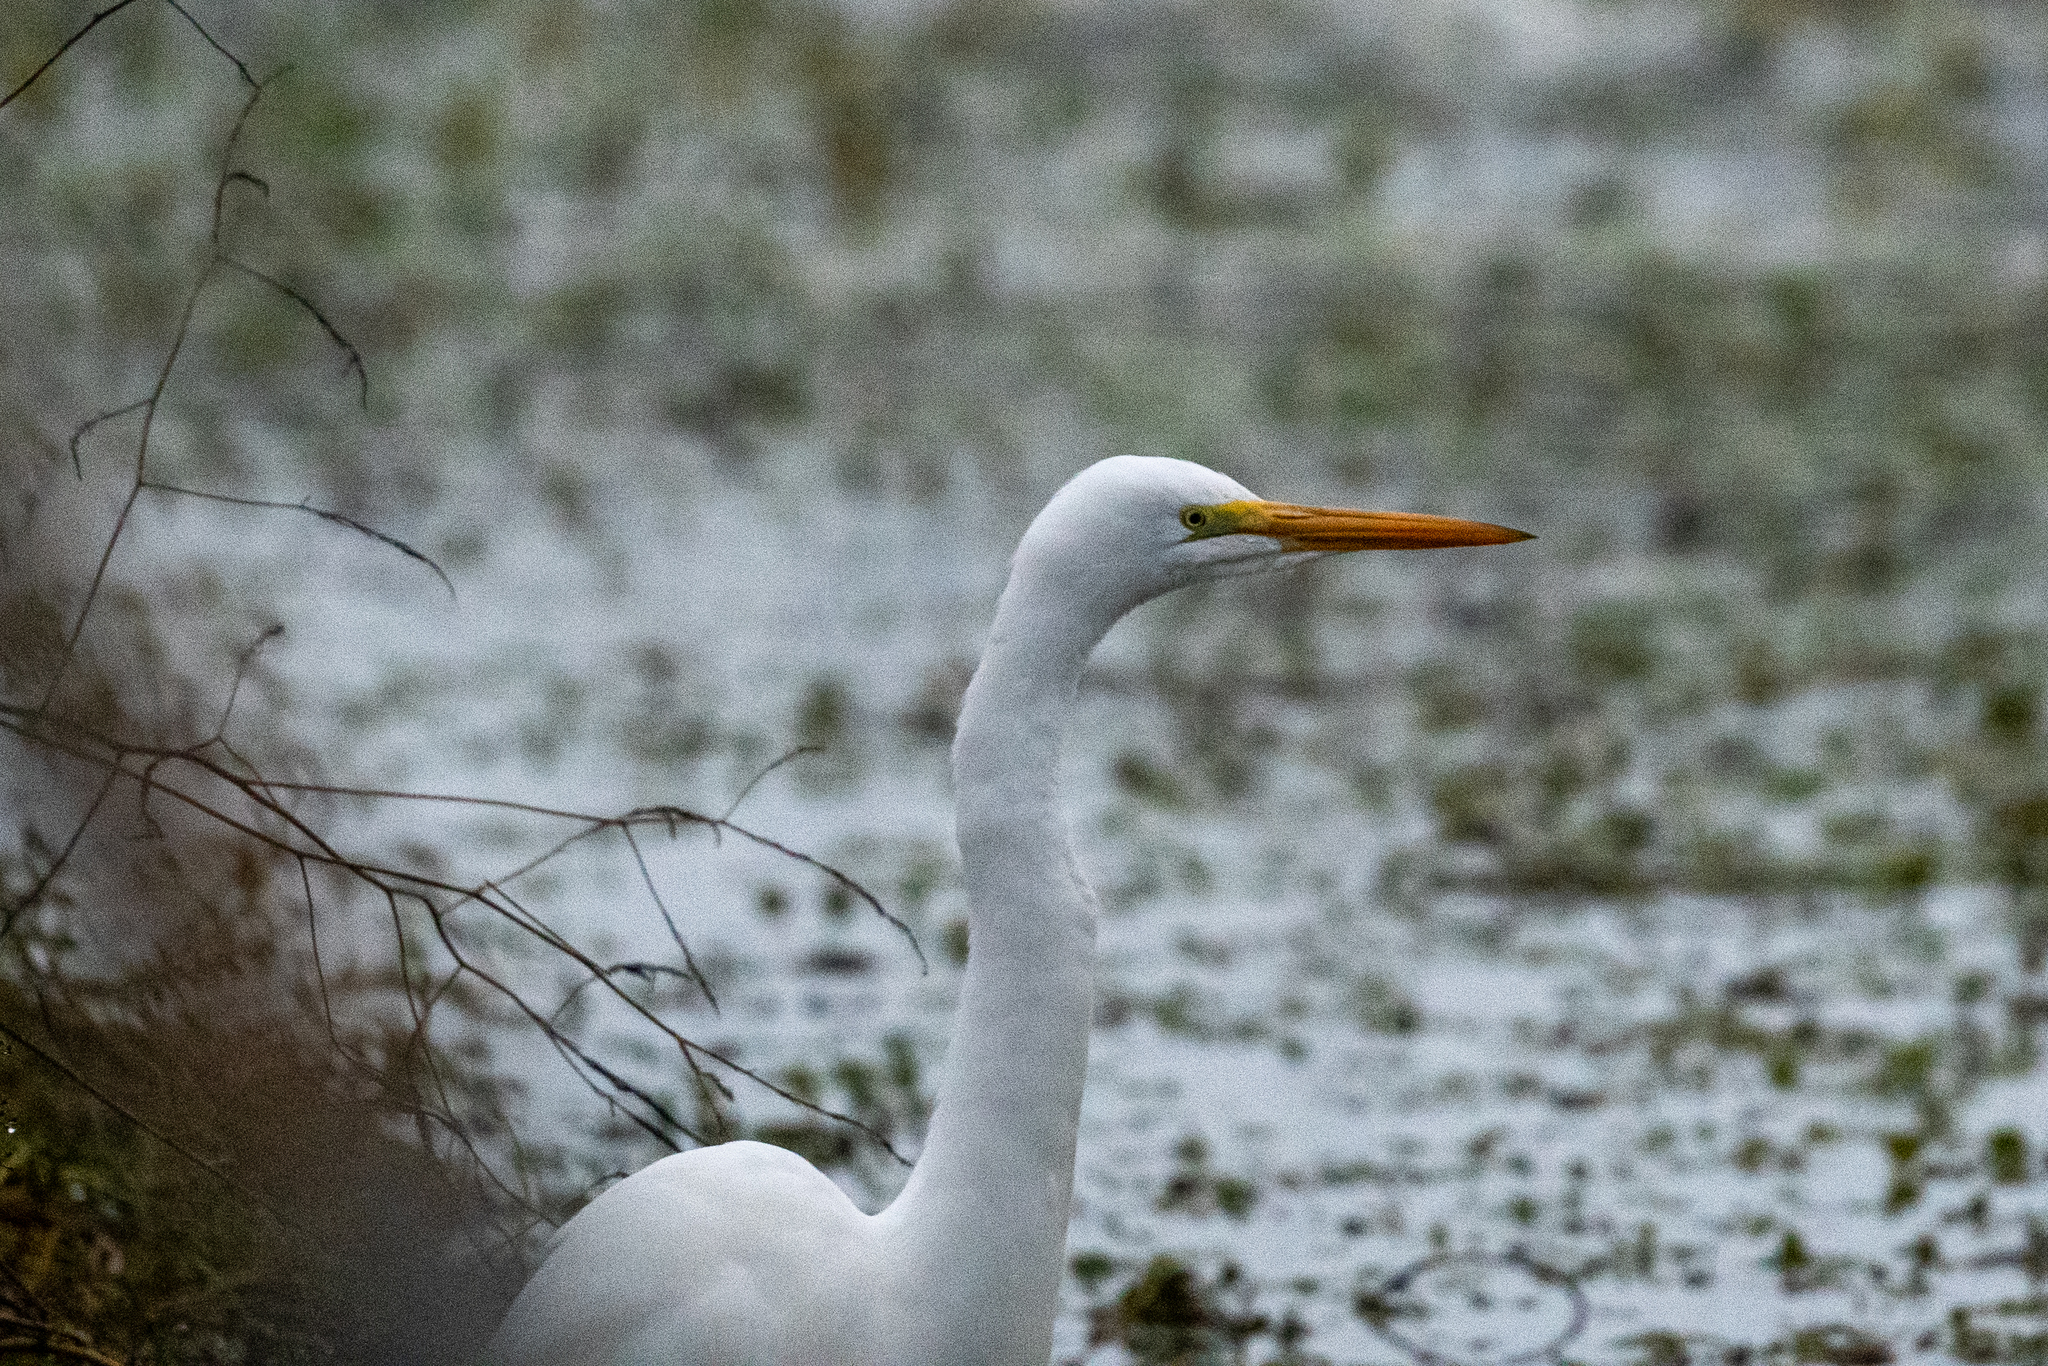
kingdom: Animalia
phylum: Chordata
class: Aves
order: Pelecaniformes
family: Ardeidae
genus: Ardea
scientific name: Ardea alba
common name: Great egret
